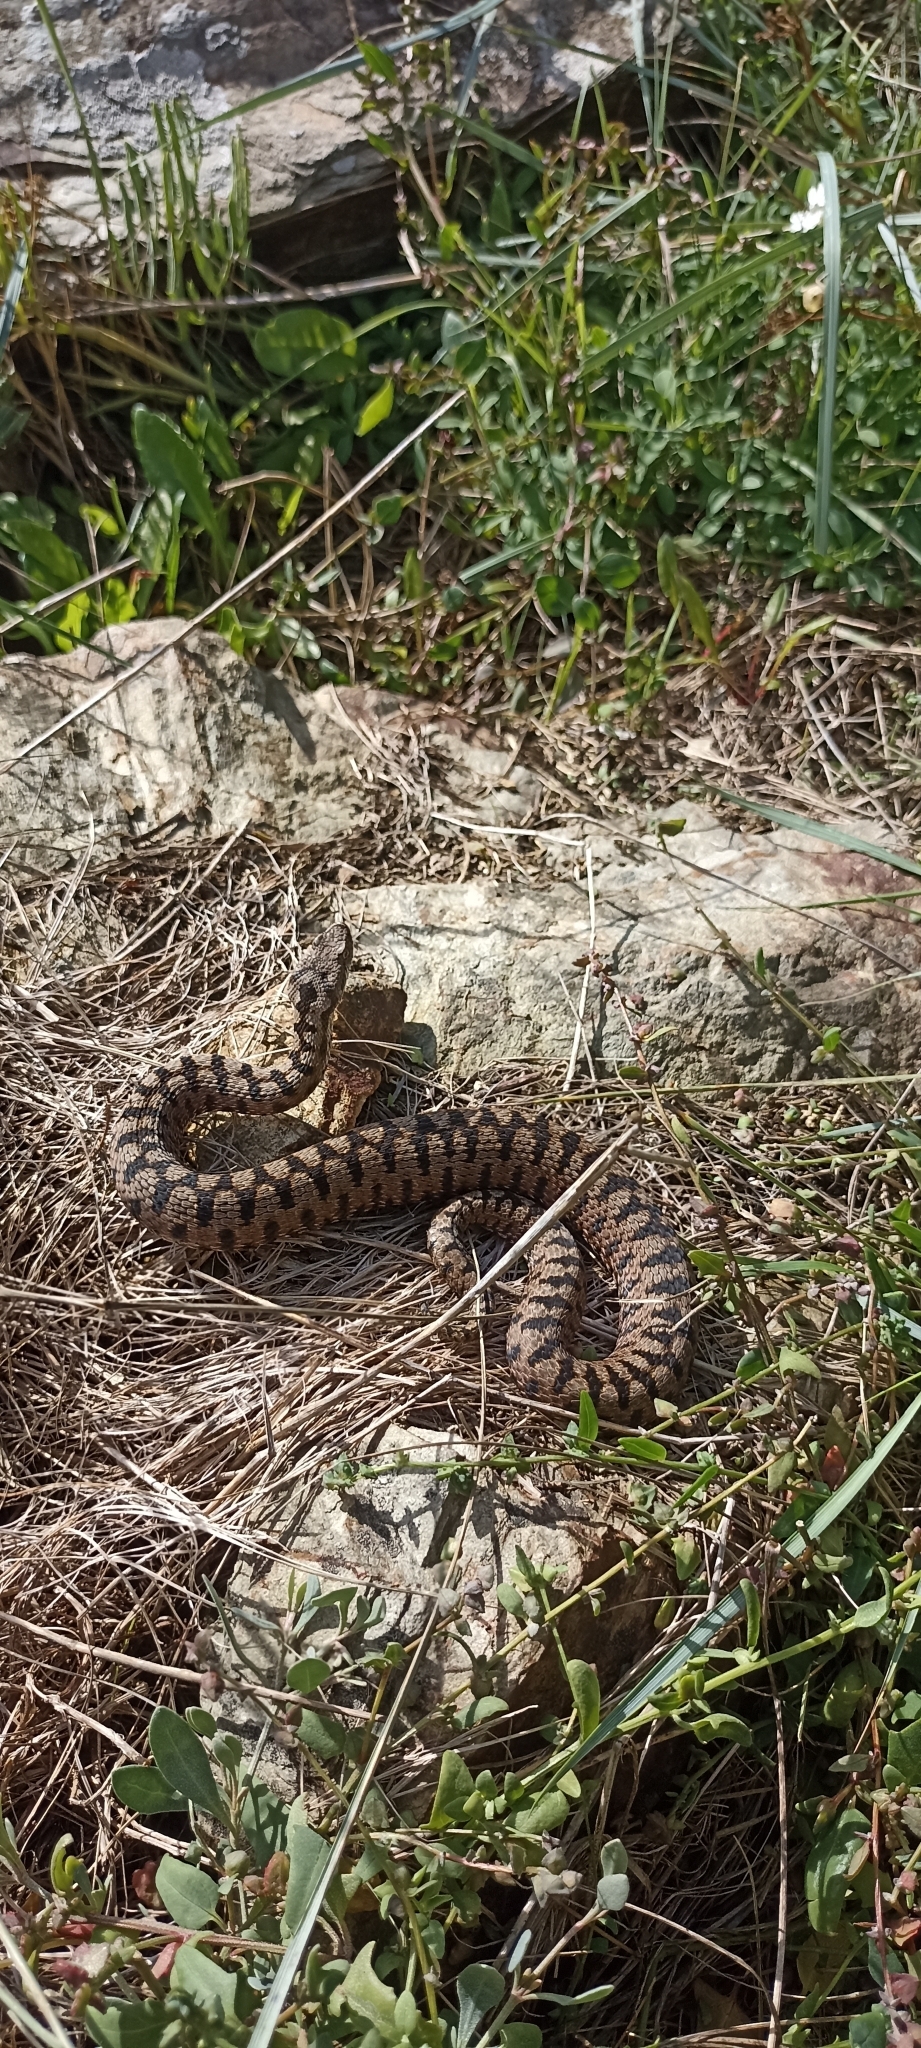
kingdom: Animalia
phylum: Chordata
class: Squamata
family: Viperidae
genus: Vipera
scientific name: Vipera aspis
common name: Asp viper
